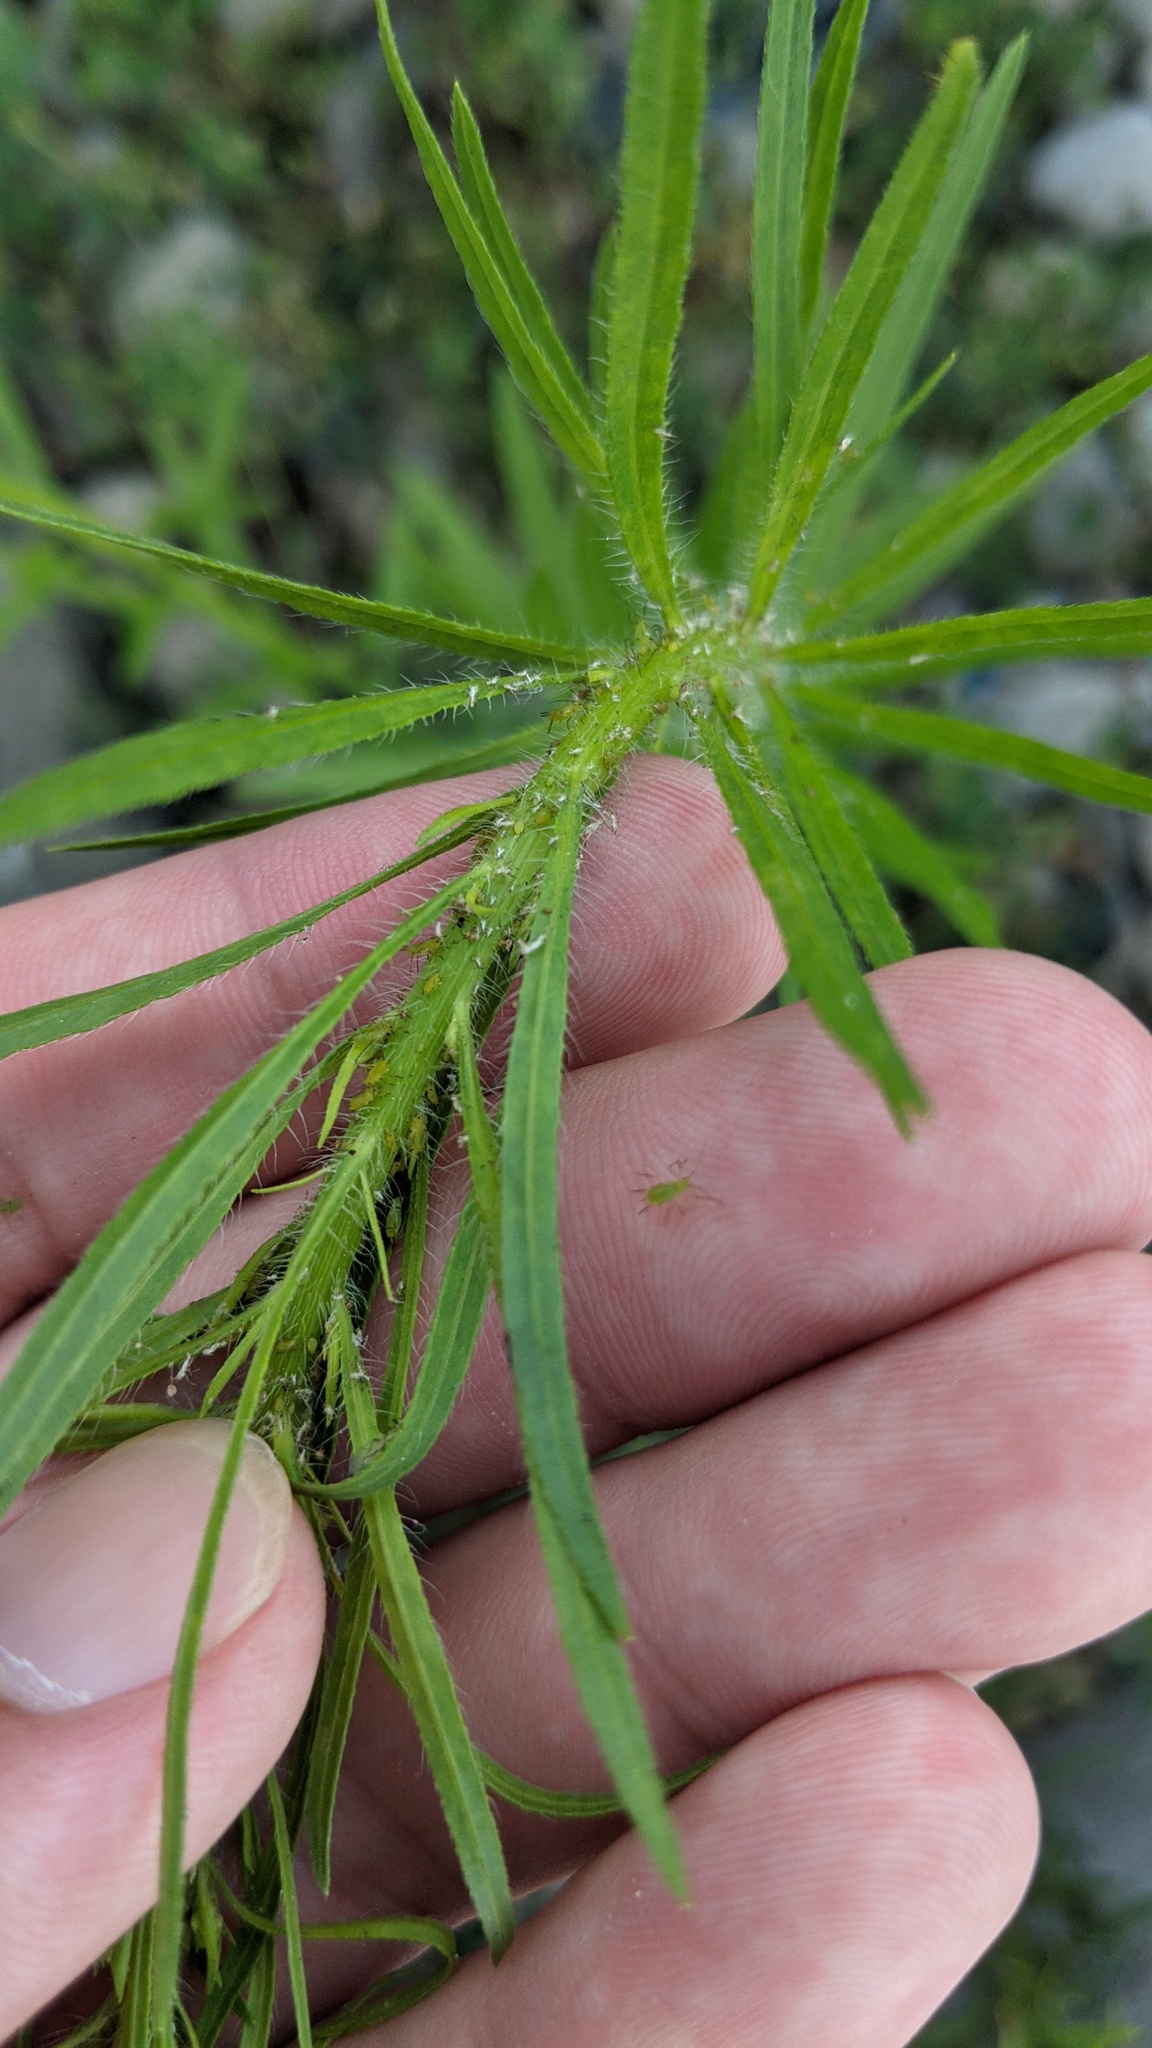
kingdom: Plantae
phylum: Tracheophyta
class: Magnoliopsida
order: Asterales
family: Asteraceae
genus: Erigeron
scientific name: Erigeron canadensis
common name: Canadian fleabane
